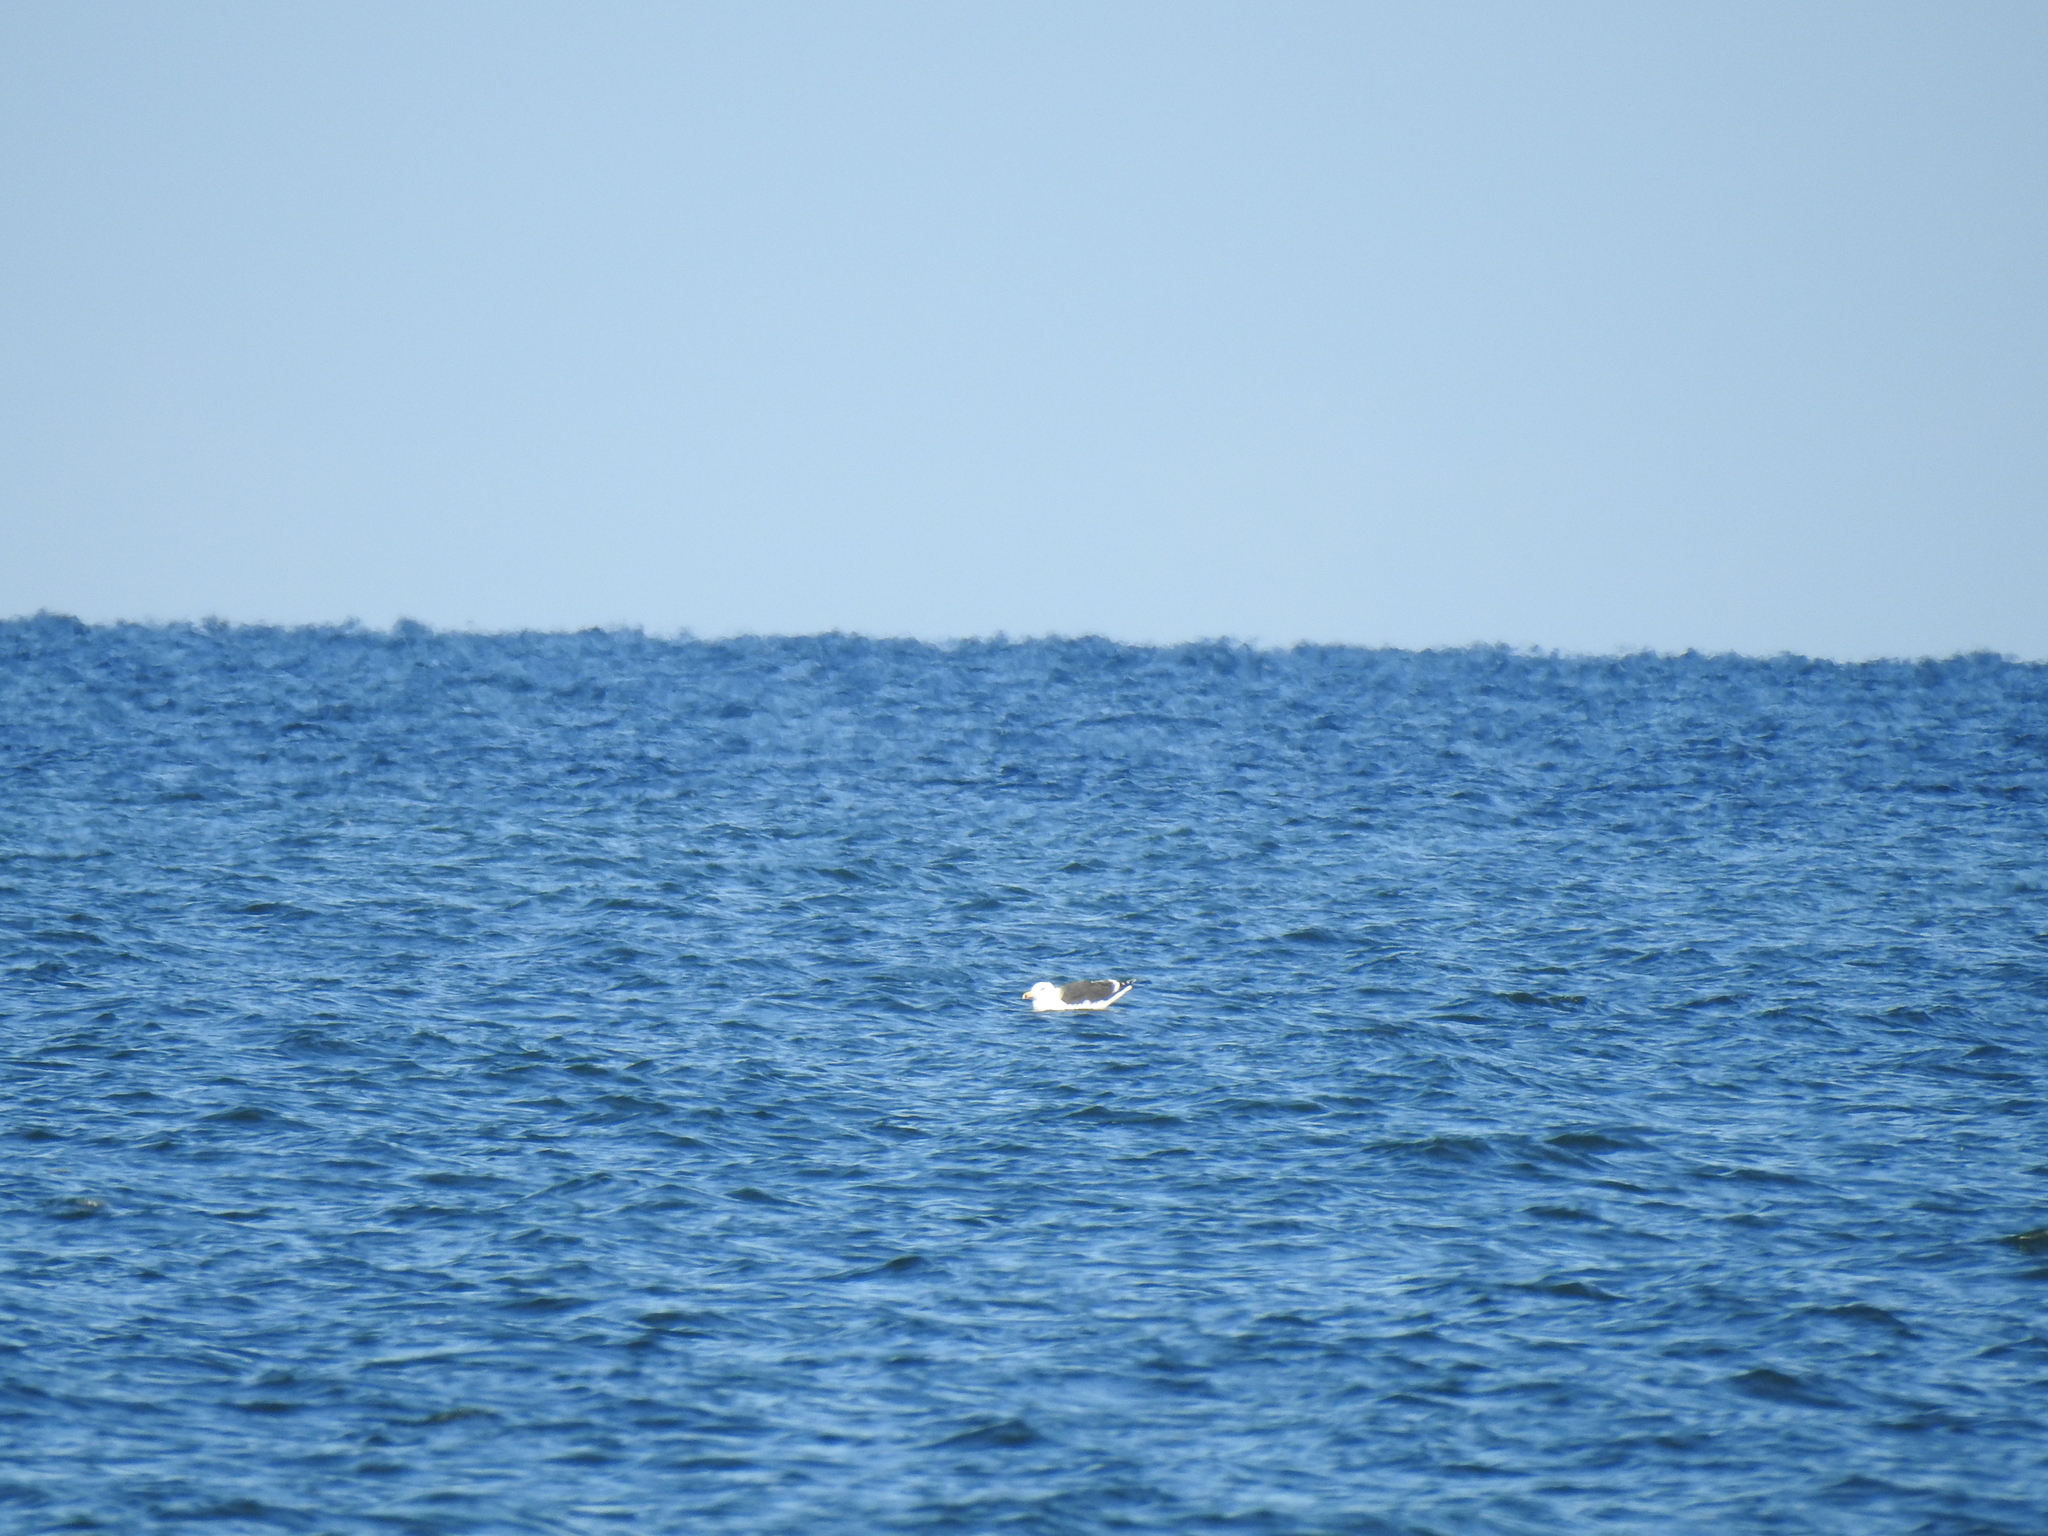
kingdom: Animalia
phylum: Chordata
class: Aves
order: Charadriiformes
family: Laridae
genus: Larus
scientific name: Larus marinus
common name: Great black-backed gull
